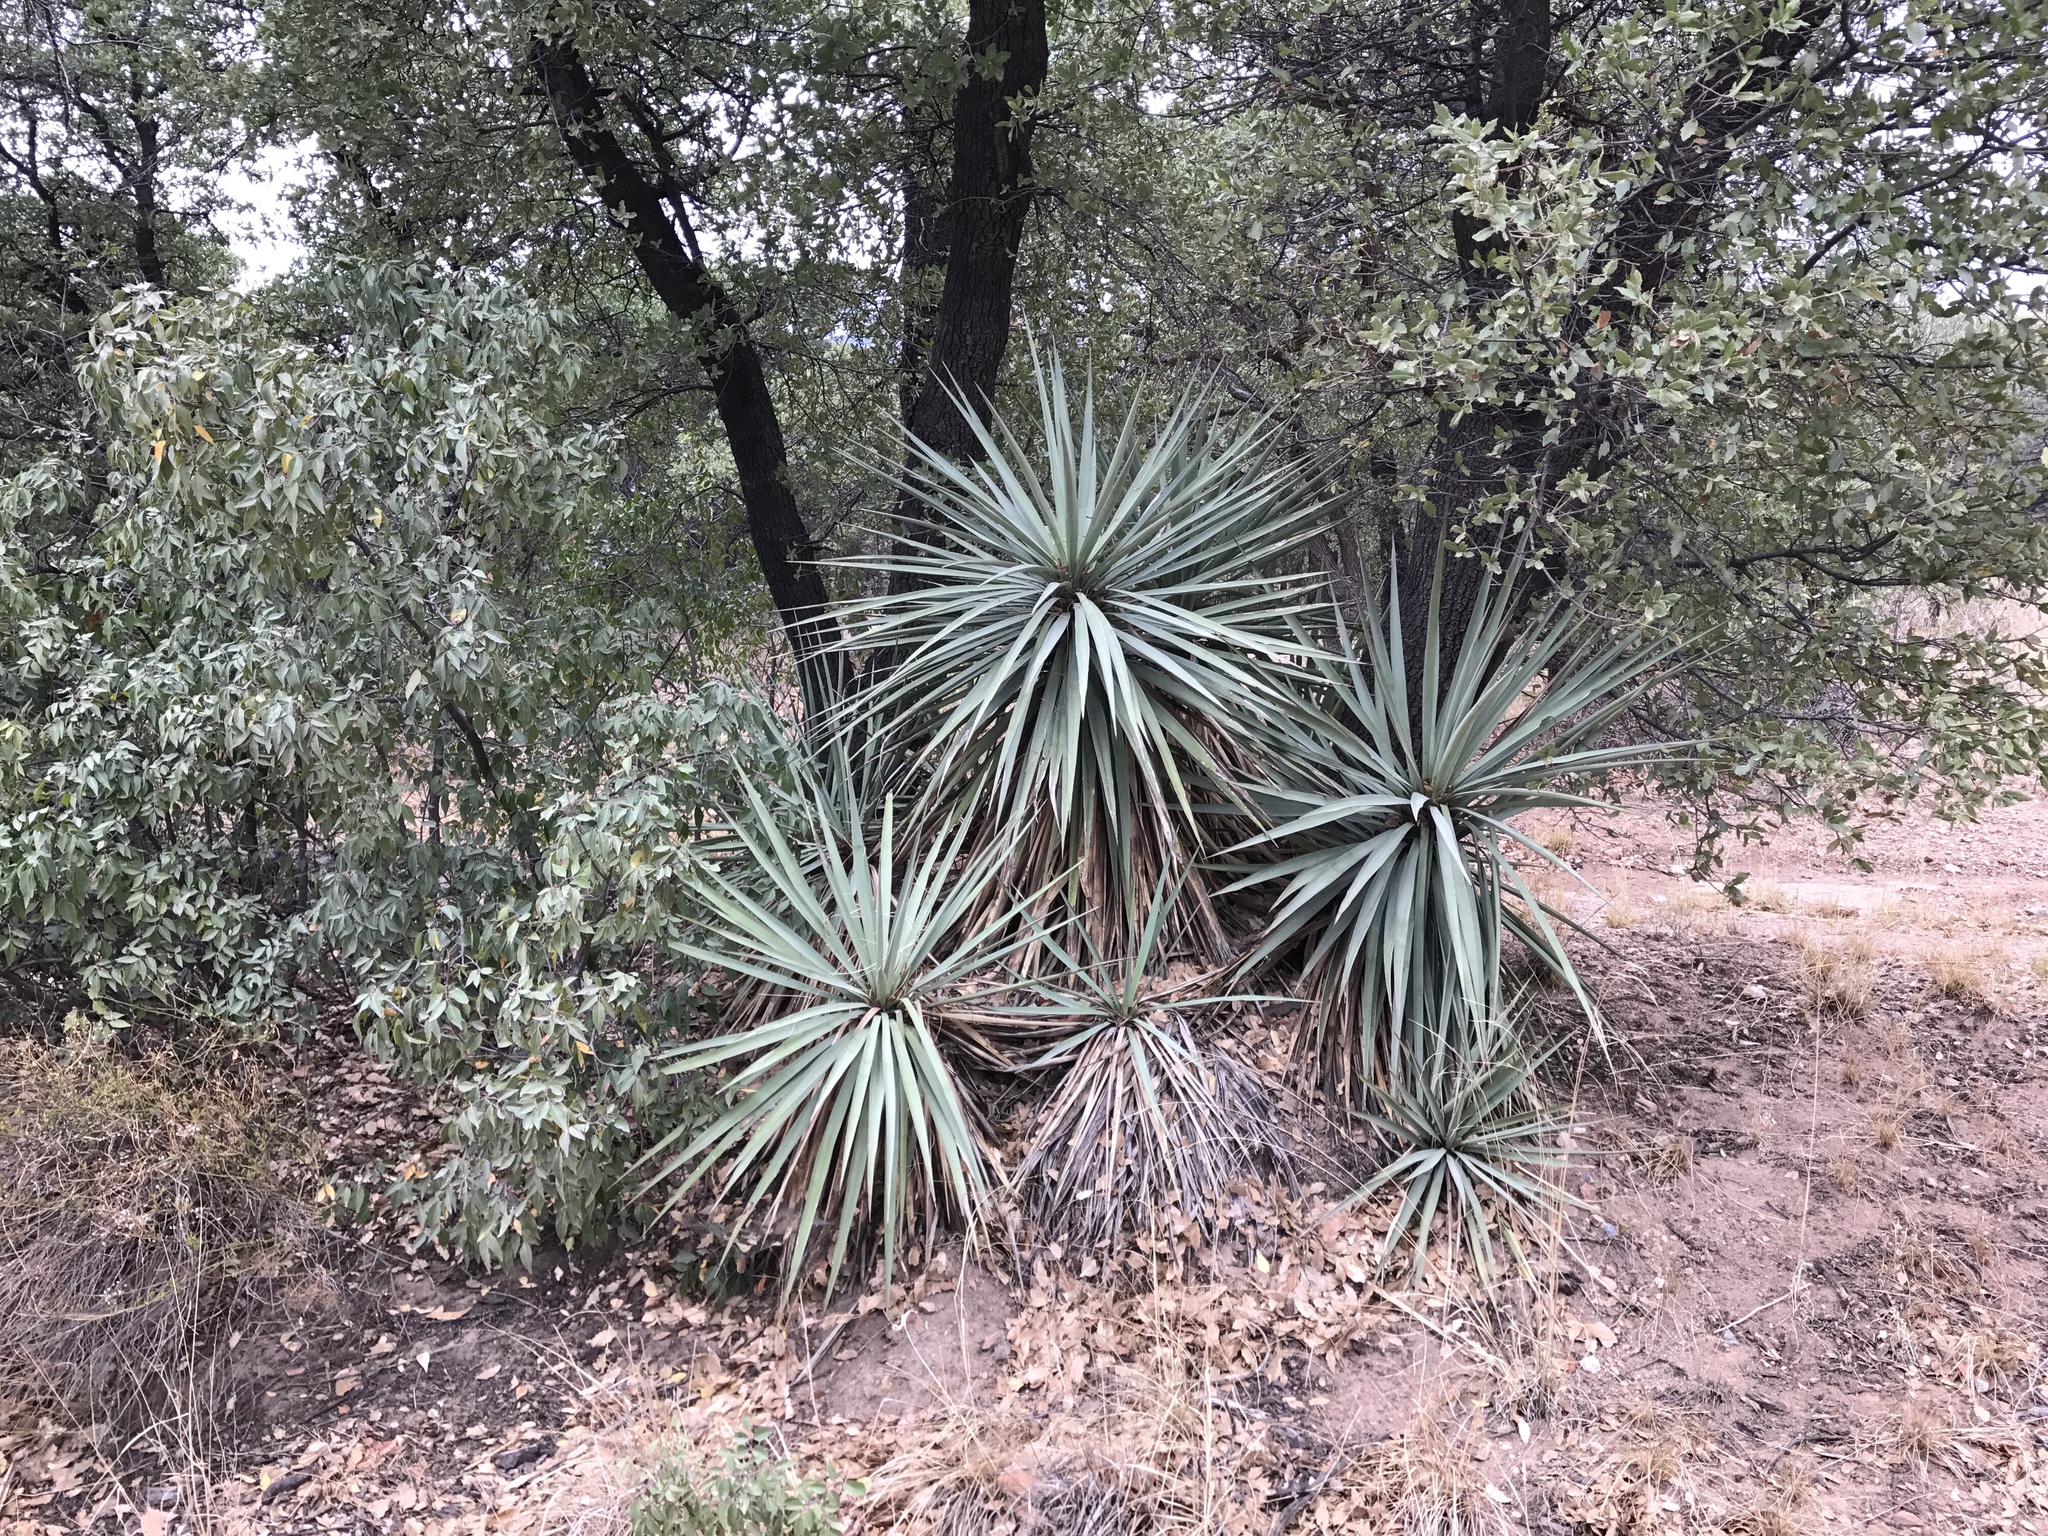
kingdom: Plantae
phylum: Tracheophyta
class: Liliopsida
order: Asparagales
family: Asparagaceae
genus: Yucca
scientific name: Yucca madrensis
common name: Hoary yucca
